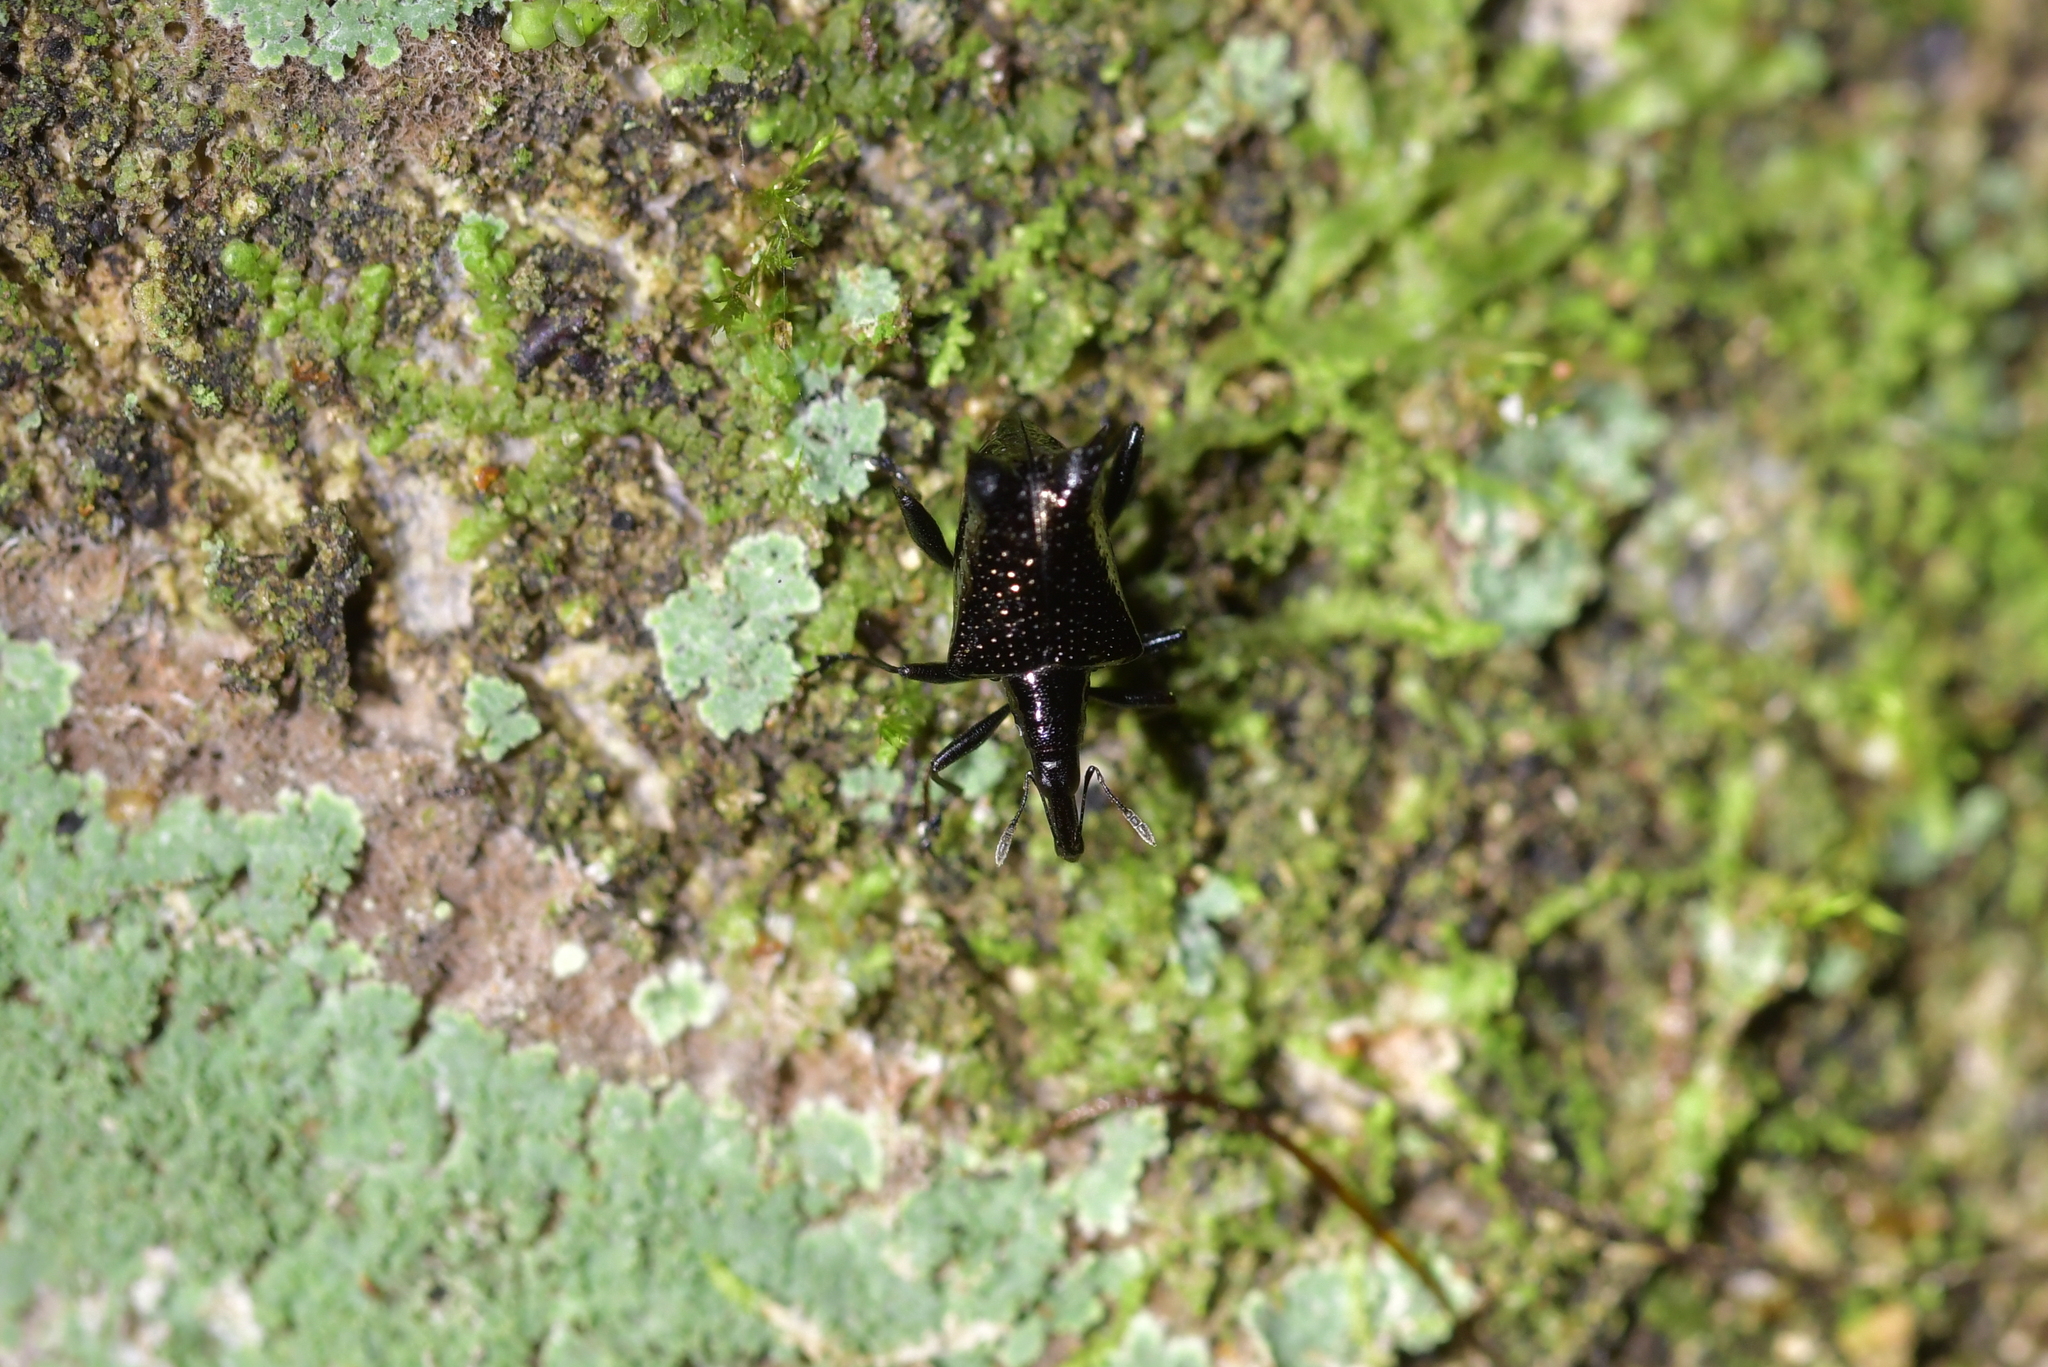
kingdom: Animalia
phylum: Arthropoda
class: Insecta
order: Coleoptera
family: Curculionidae
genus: Scolopterus
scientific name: Scolopterus penicillatus
